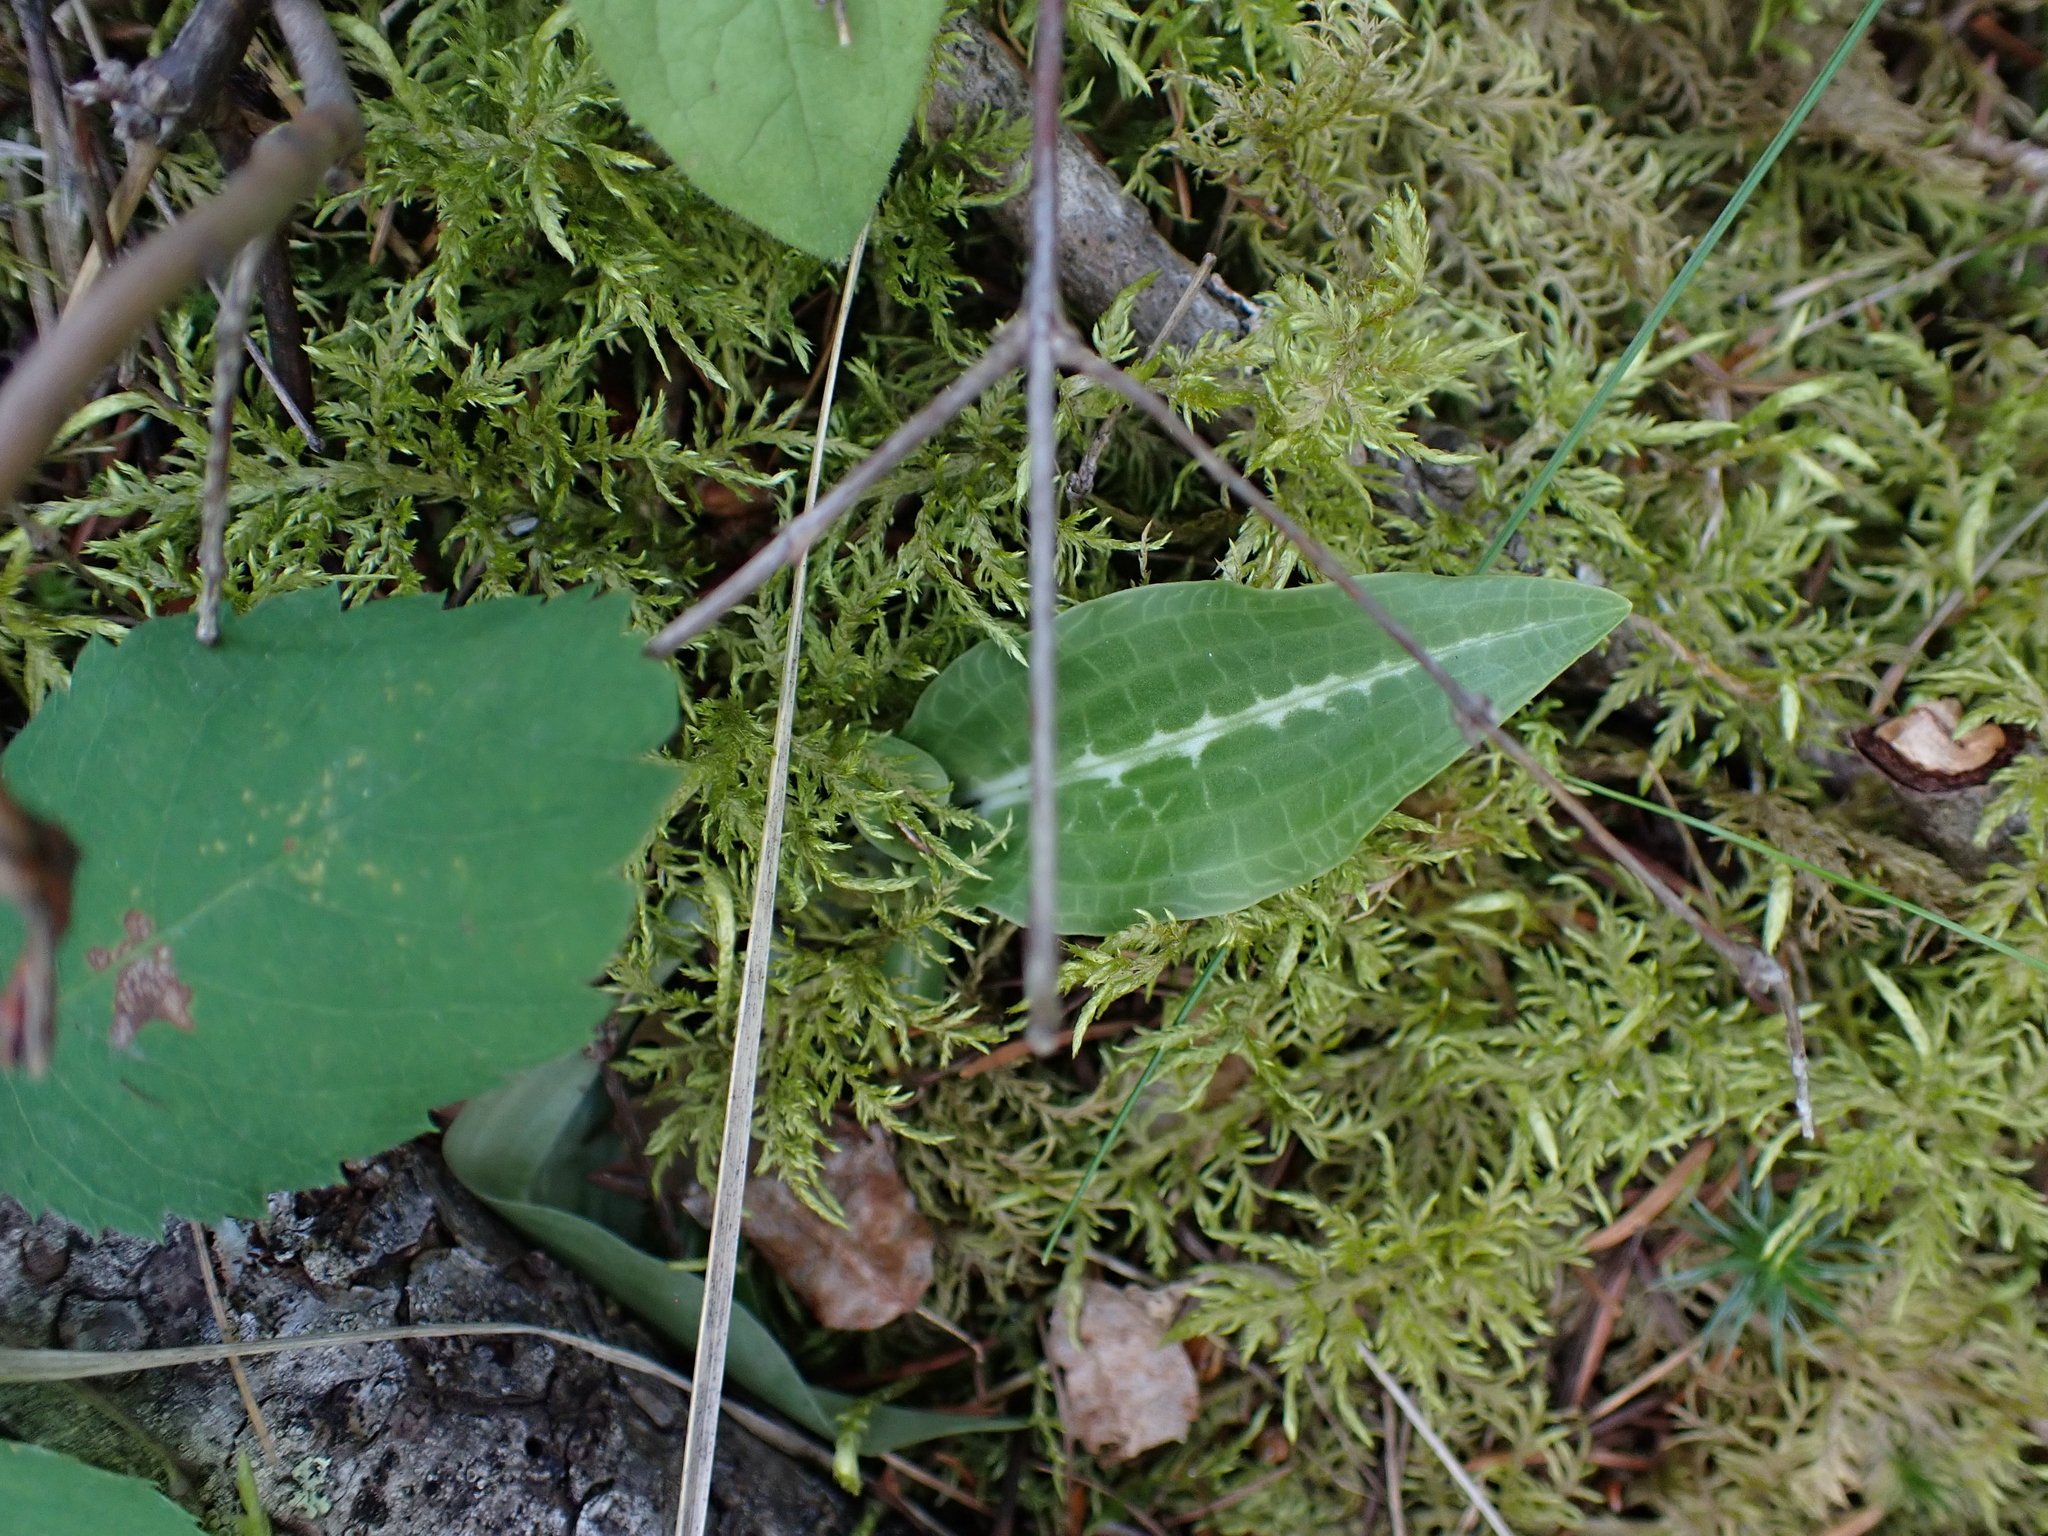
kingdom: Plantae
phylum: Tracheophyta
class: Liliopsida
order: Asparagales
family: Orchidaceae
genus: Goodyera
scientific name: Goodyera oblongifolia
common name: Giant rattlesnake-plantain
